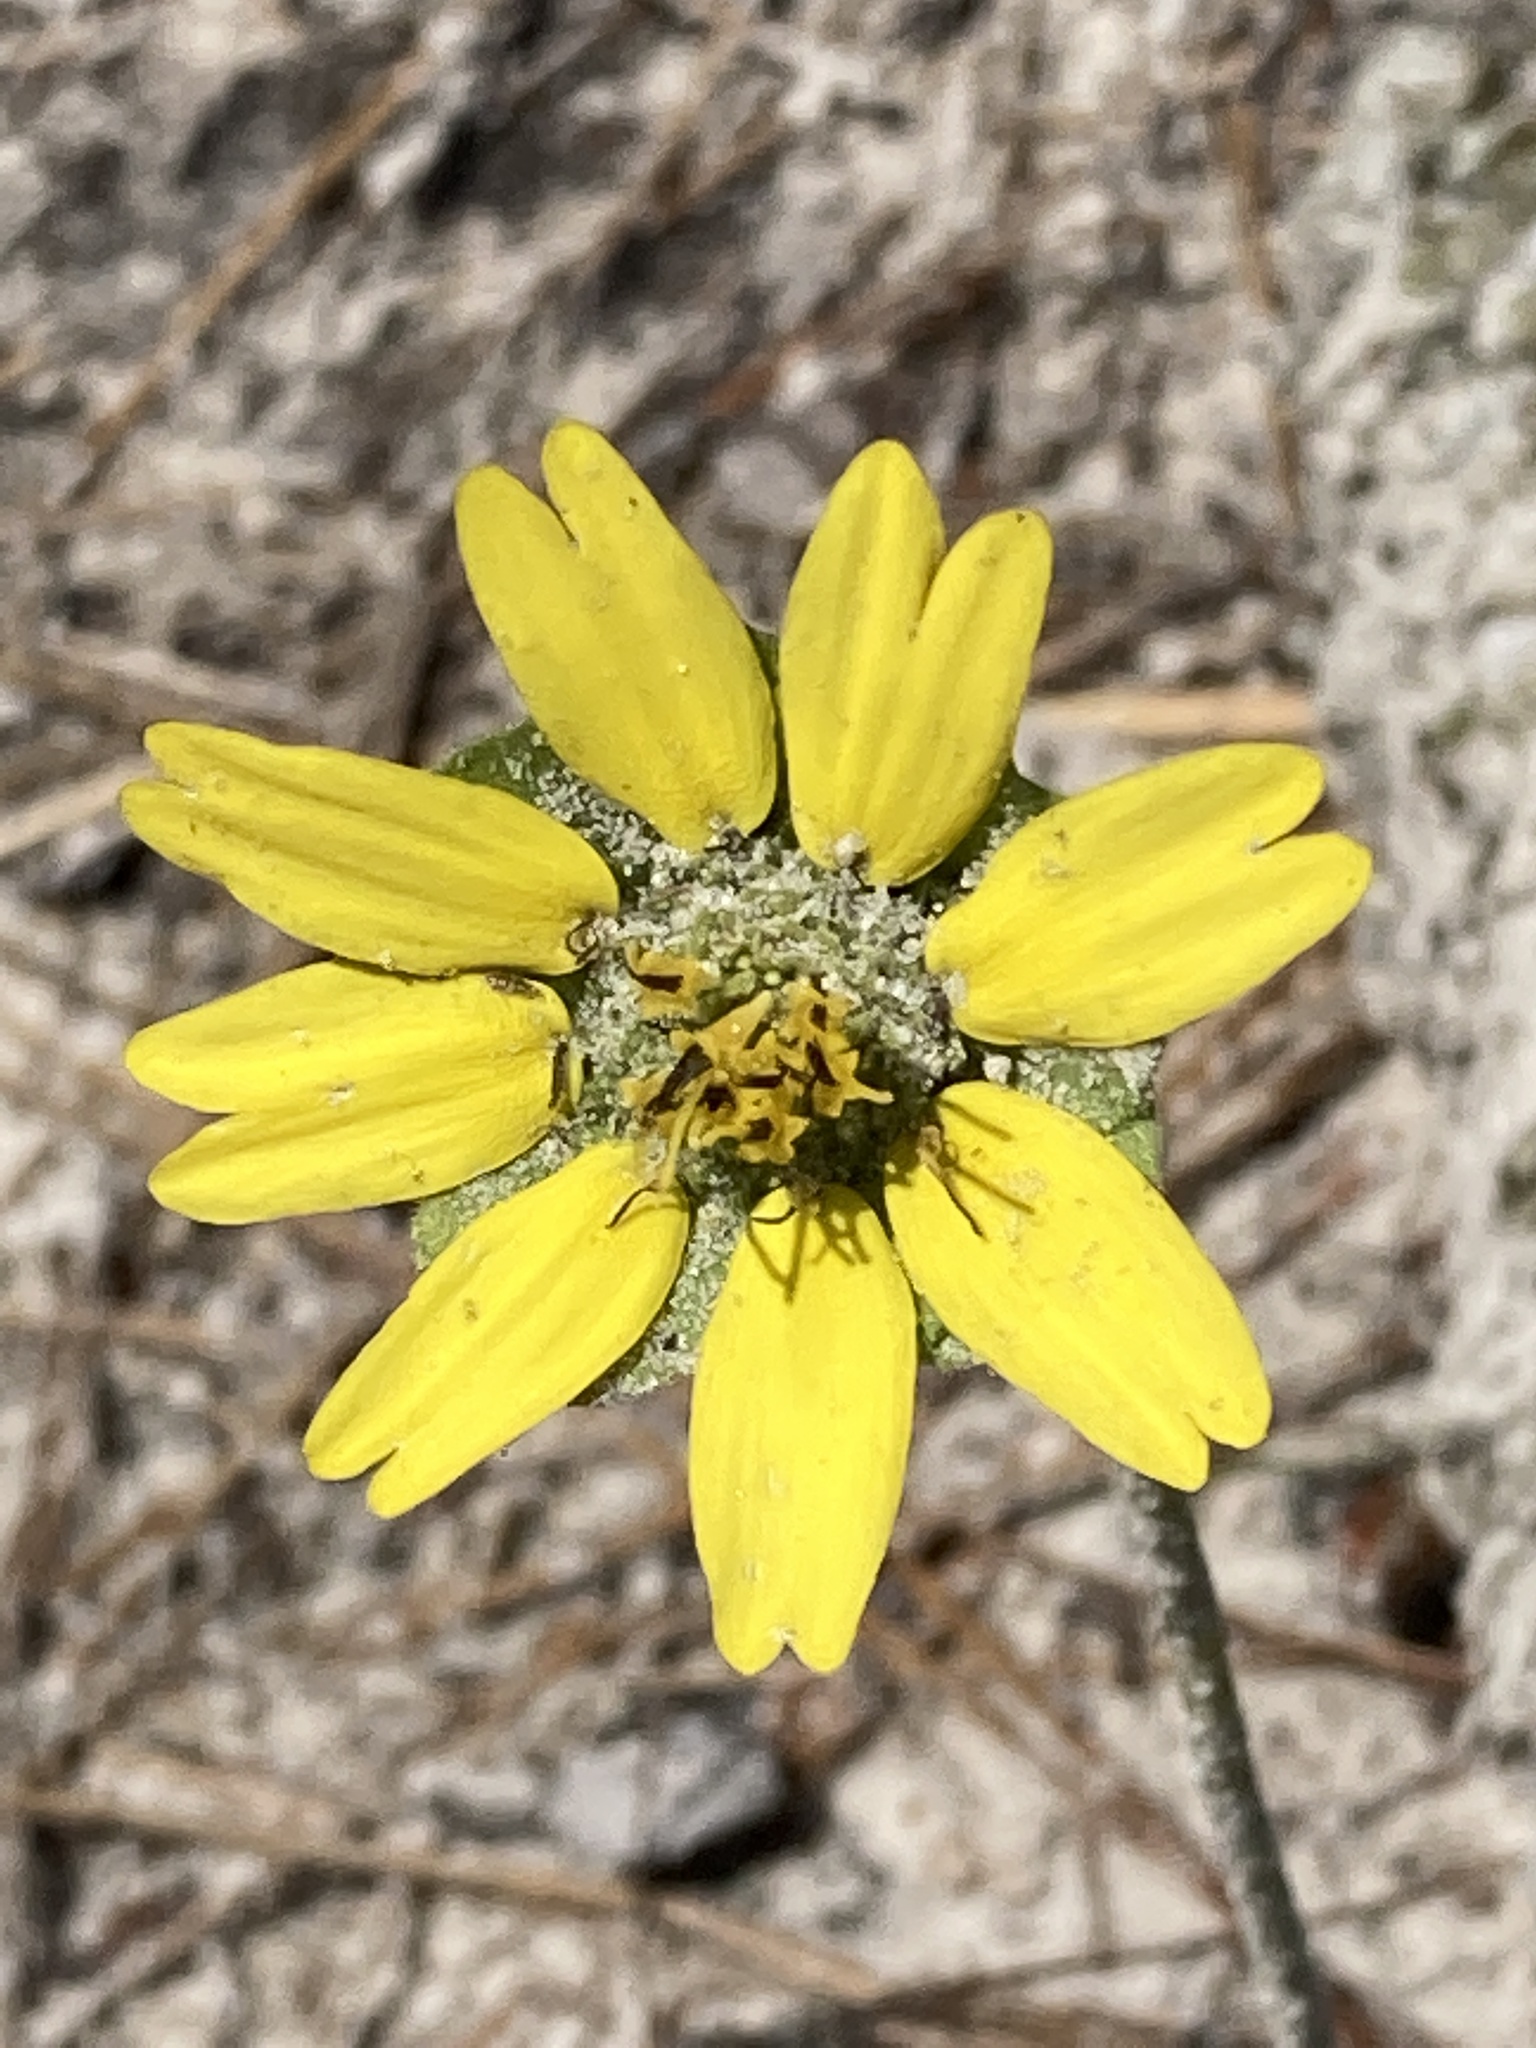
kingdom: Plantae
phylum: Tracheophyta
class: Magnoliopsida
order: Asterales
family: Asteraceae
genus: Berlandiera
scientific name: Berlandiera subacaulis
